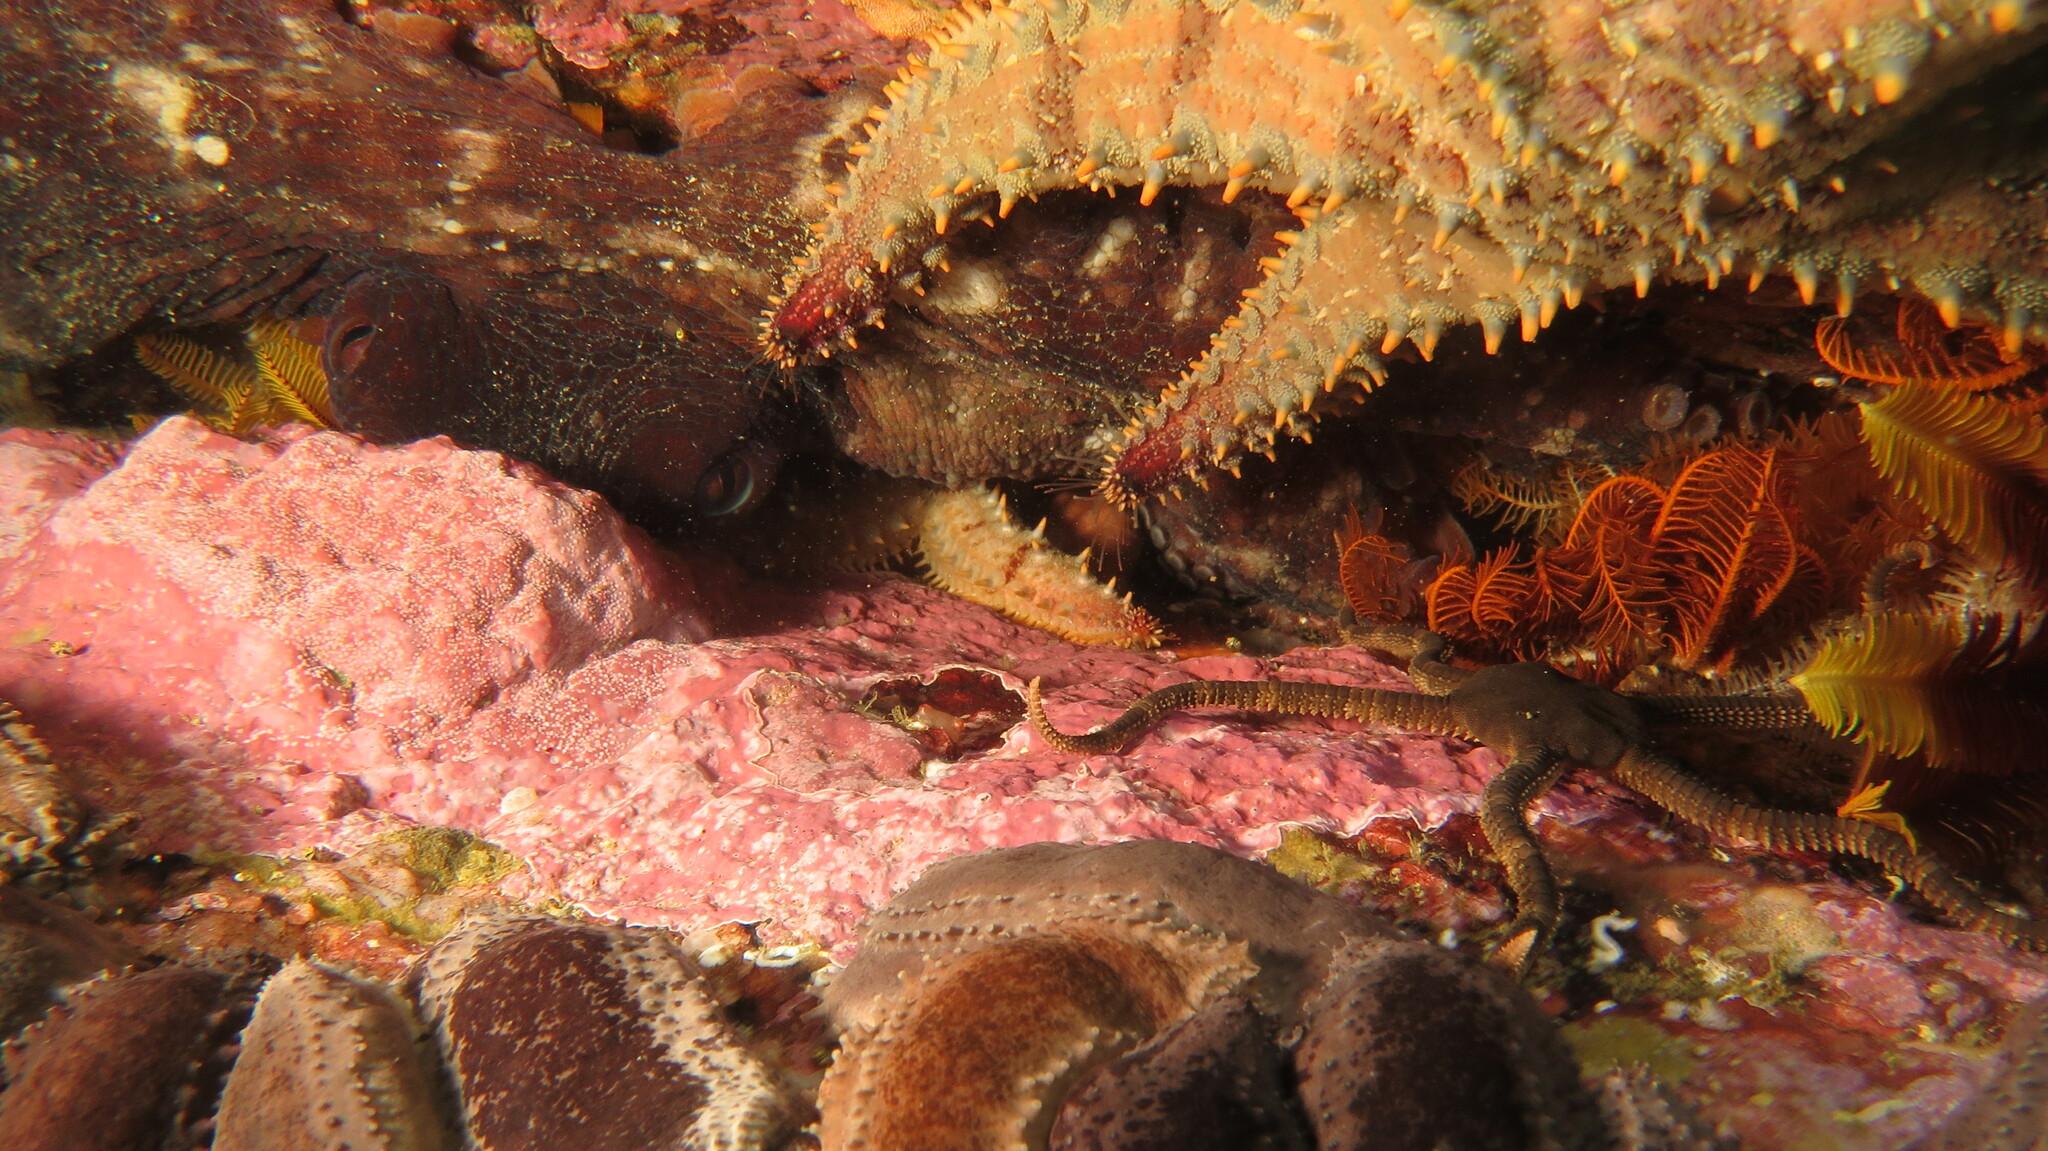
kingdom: Animalia
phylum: Mollusca
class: Cephalopoda
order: Octopoda
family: Octopodidae
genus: Octopus
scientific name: Octopus vulgaris
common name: Common octopus
